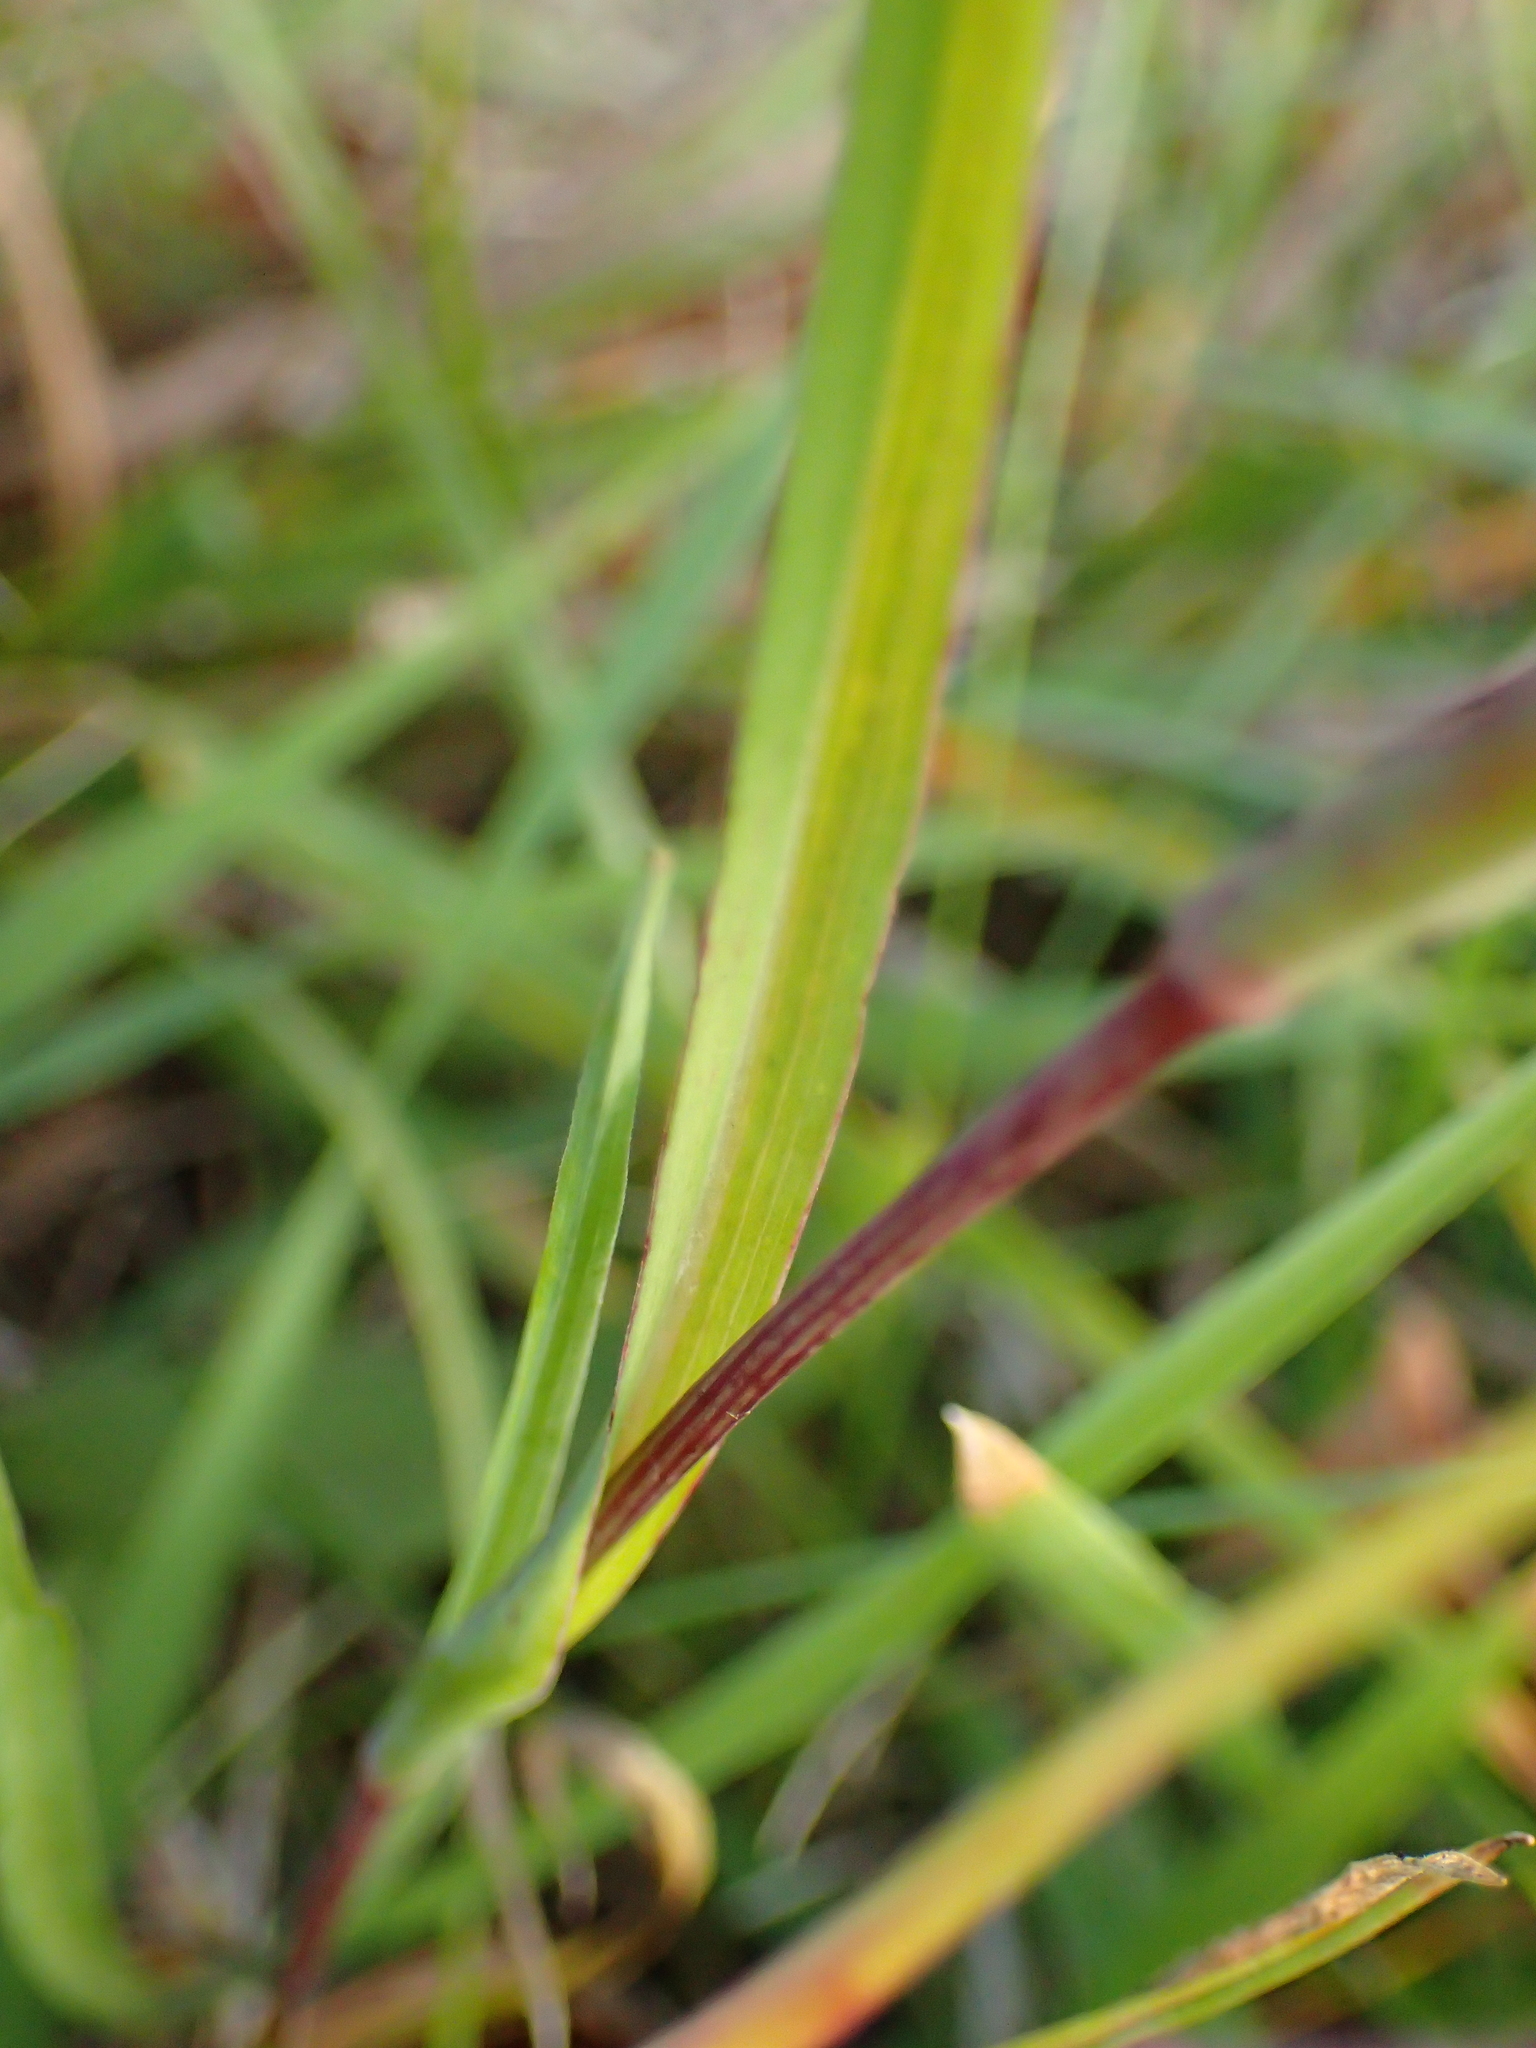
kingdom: Plantae
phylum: Tracheophyta
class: Magnoliopsida
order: Asterales
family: Asteraceae
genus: Tragopogon
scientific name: Tragopogon orientalis
